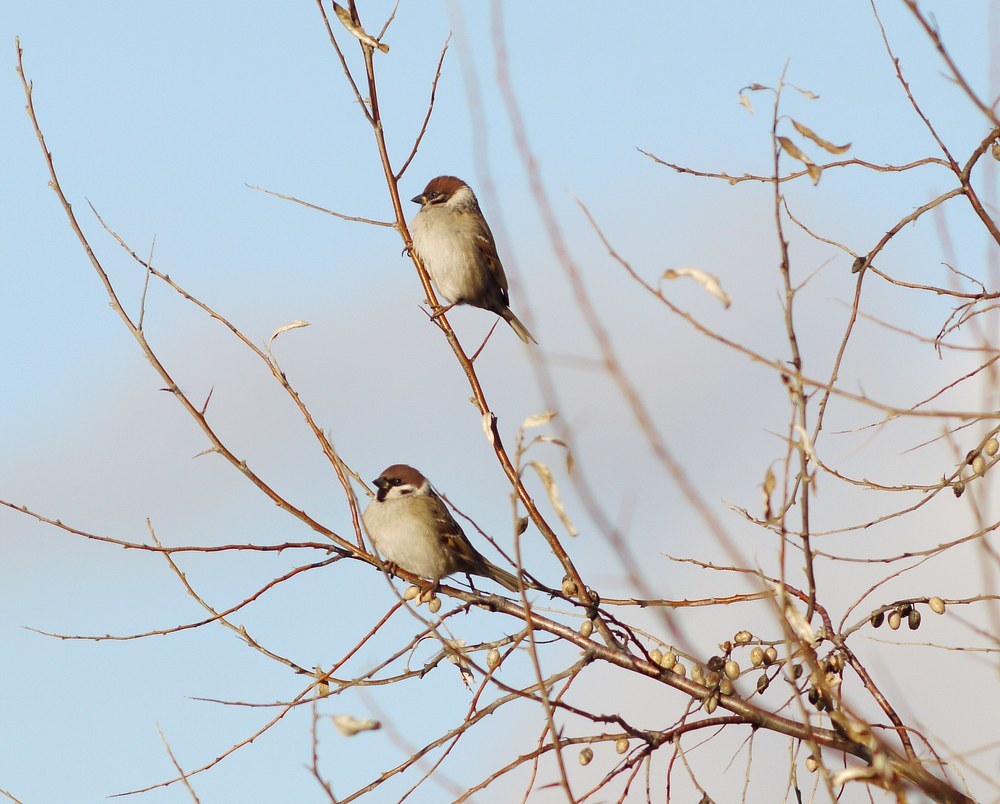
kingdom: Animalia
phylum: Chordata
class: Aves
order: Passeriformes
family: Passeridae
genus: Passer
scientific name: Passer montanus
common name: Eurasian tree sparrow
